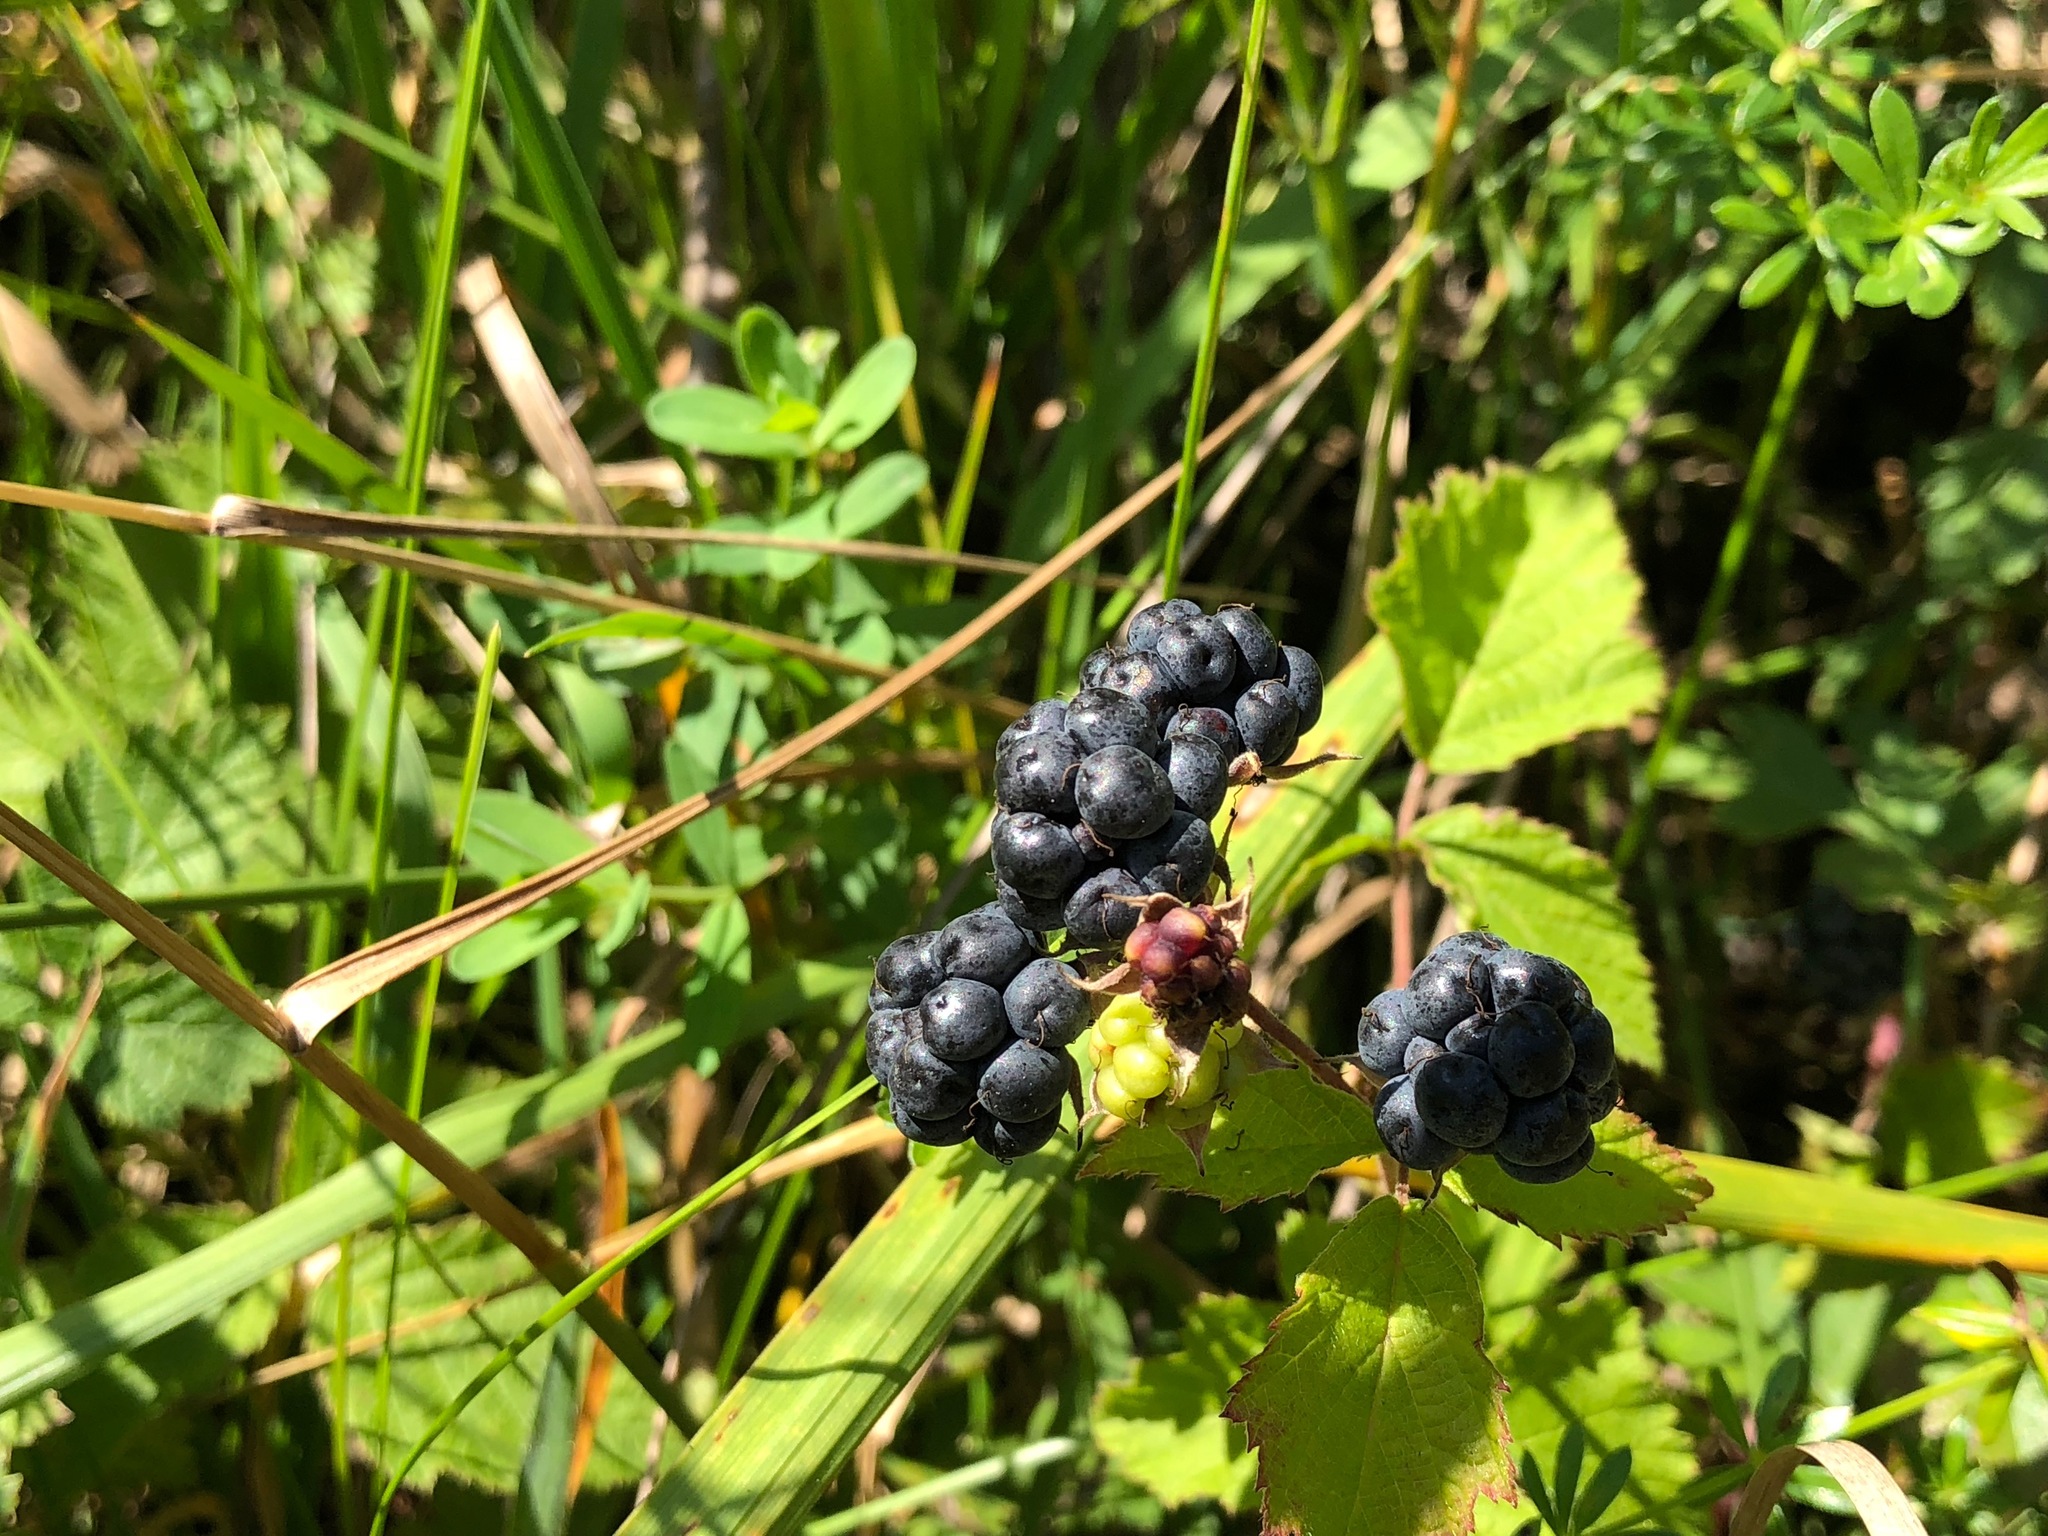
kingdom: Plantae
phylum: Tracheophyta
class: Magnoliopsida
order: Rosales
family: Rosaceae
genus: Rubus
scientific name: Rubus caesius
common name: Dewberry
